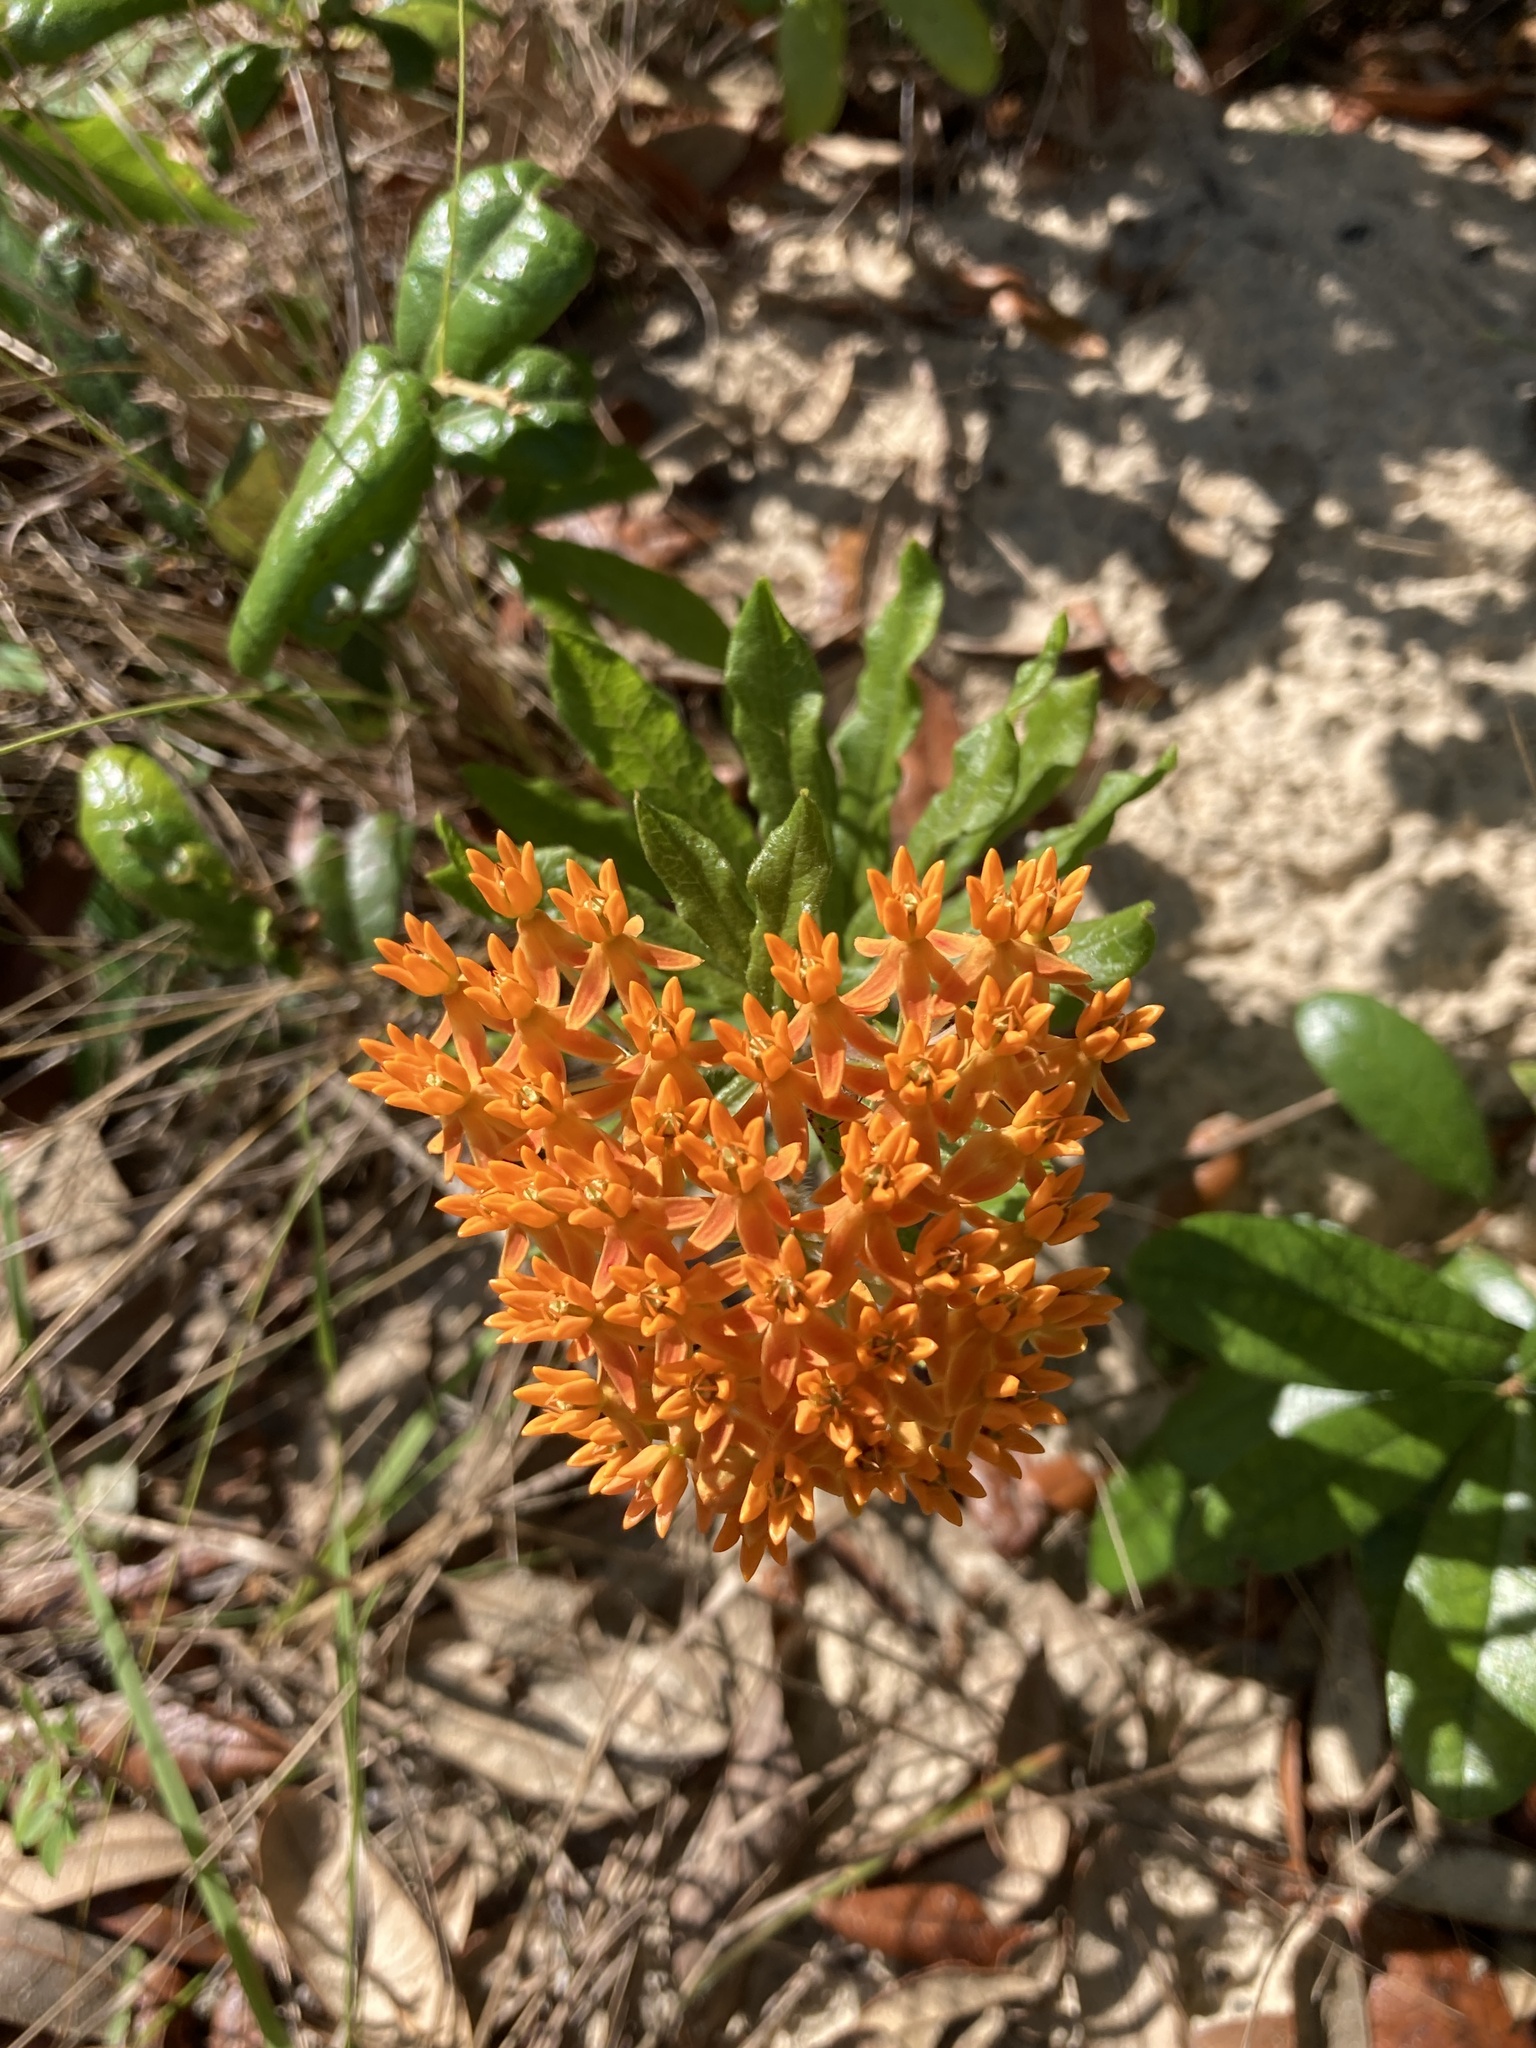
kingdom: Plantae
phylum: Tracheophyta
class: Magnoliopsida
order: Gentianales
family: Apocynaceae
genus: Asclepias
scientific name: Asclepias tuberosa
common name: Butterfly milkweed
